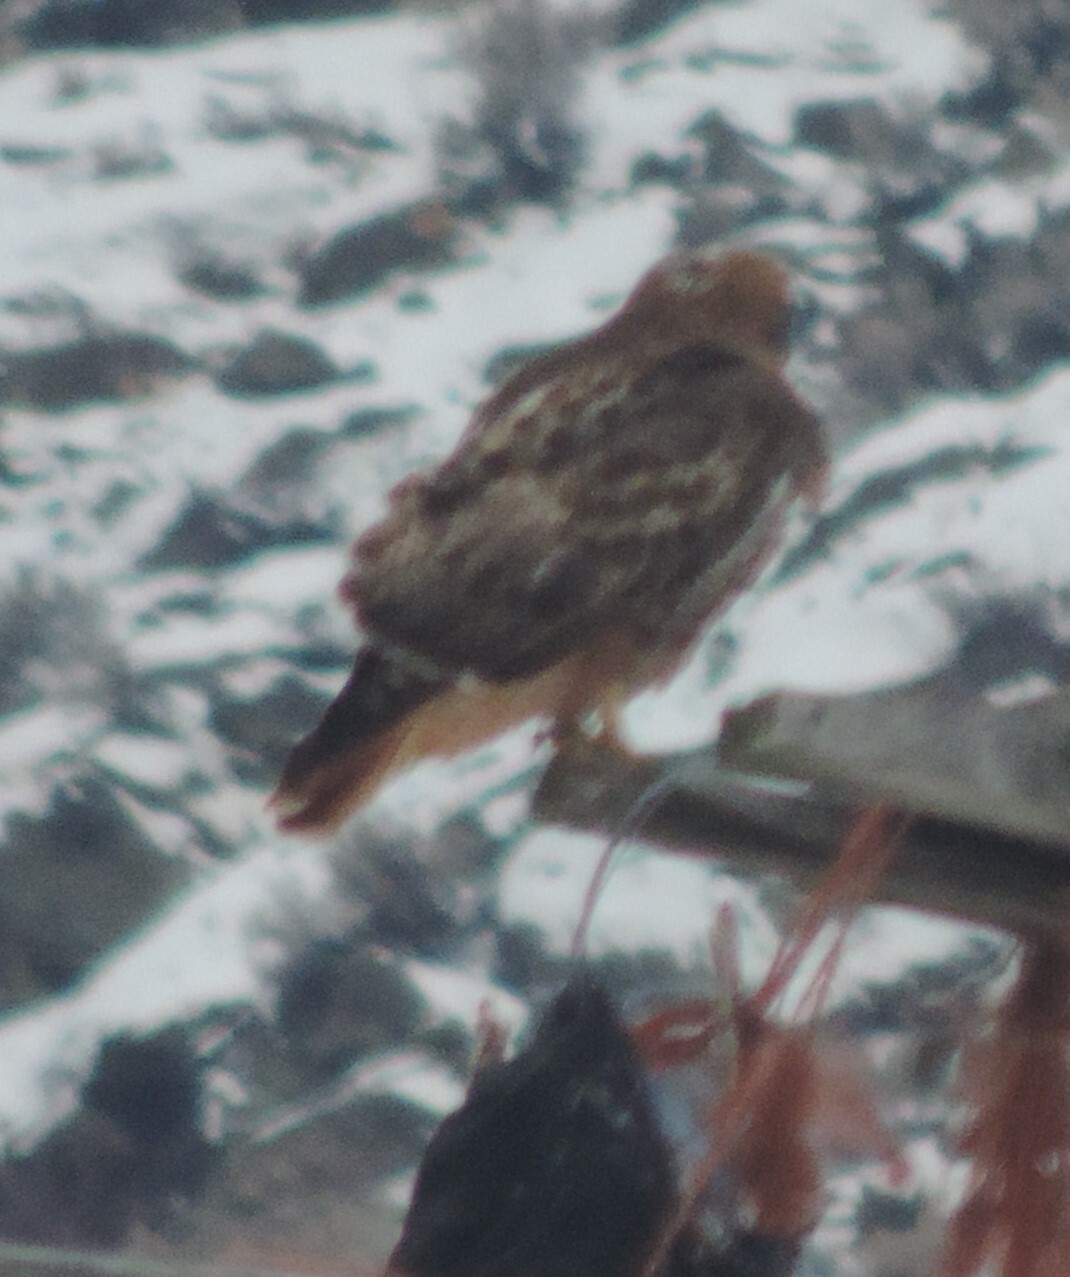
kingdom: Animalia
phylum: Chordata
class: Aves
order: Accipitriformes
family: Accipitridae
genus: Buteo
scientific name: Buteo jamaicensis
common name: Red-tailed hawk
